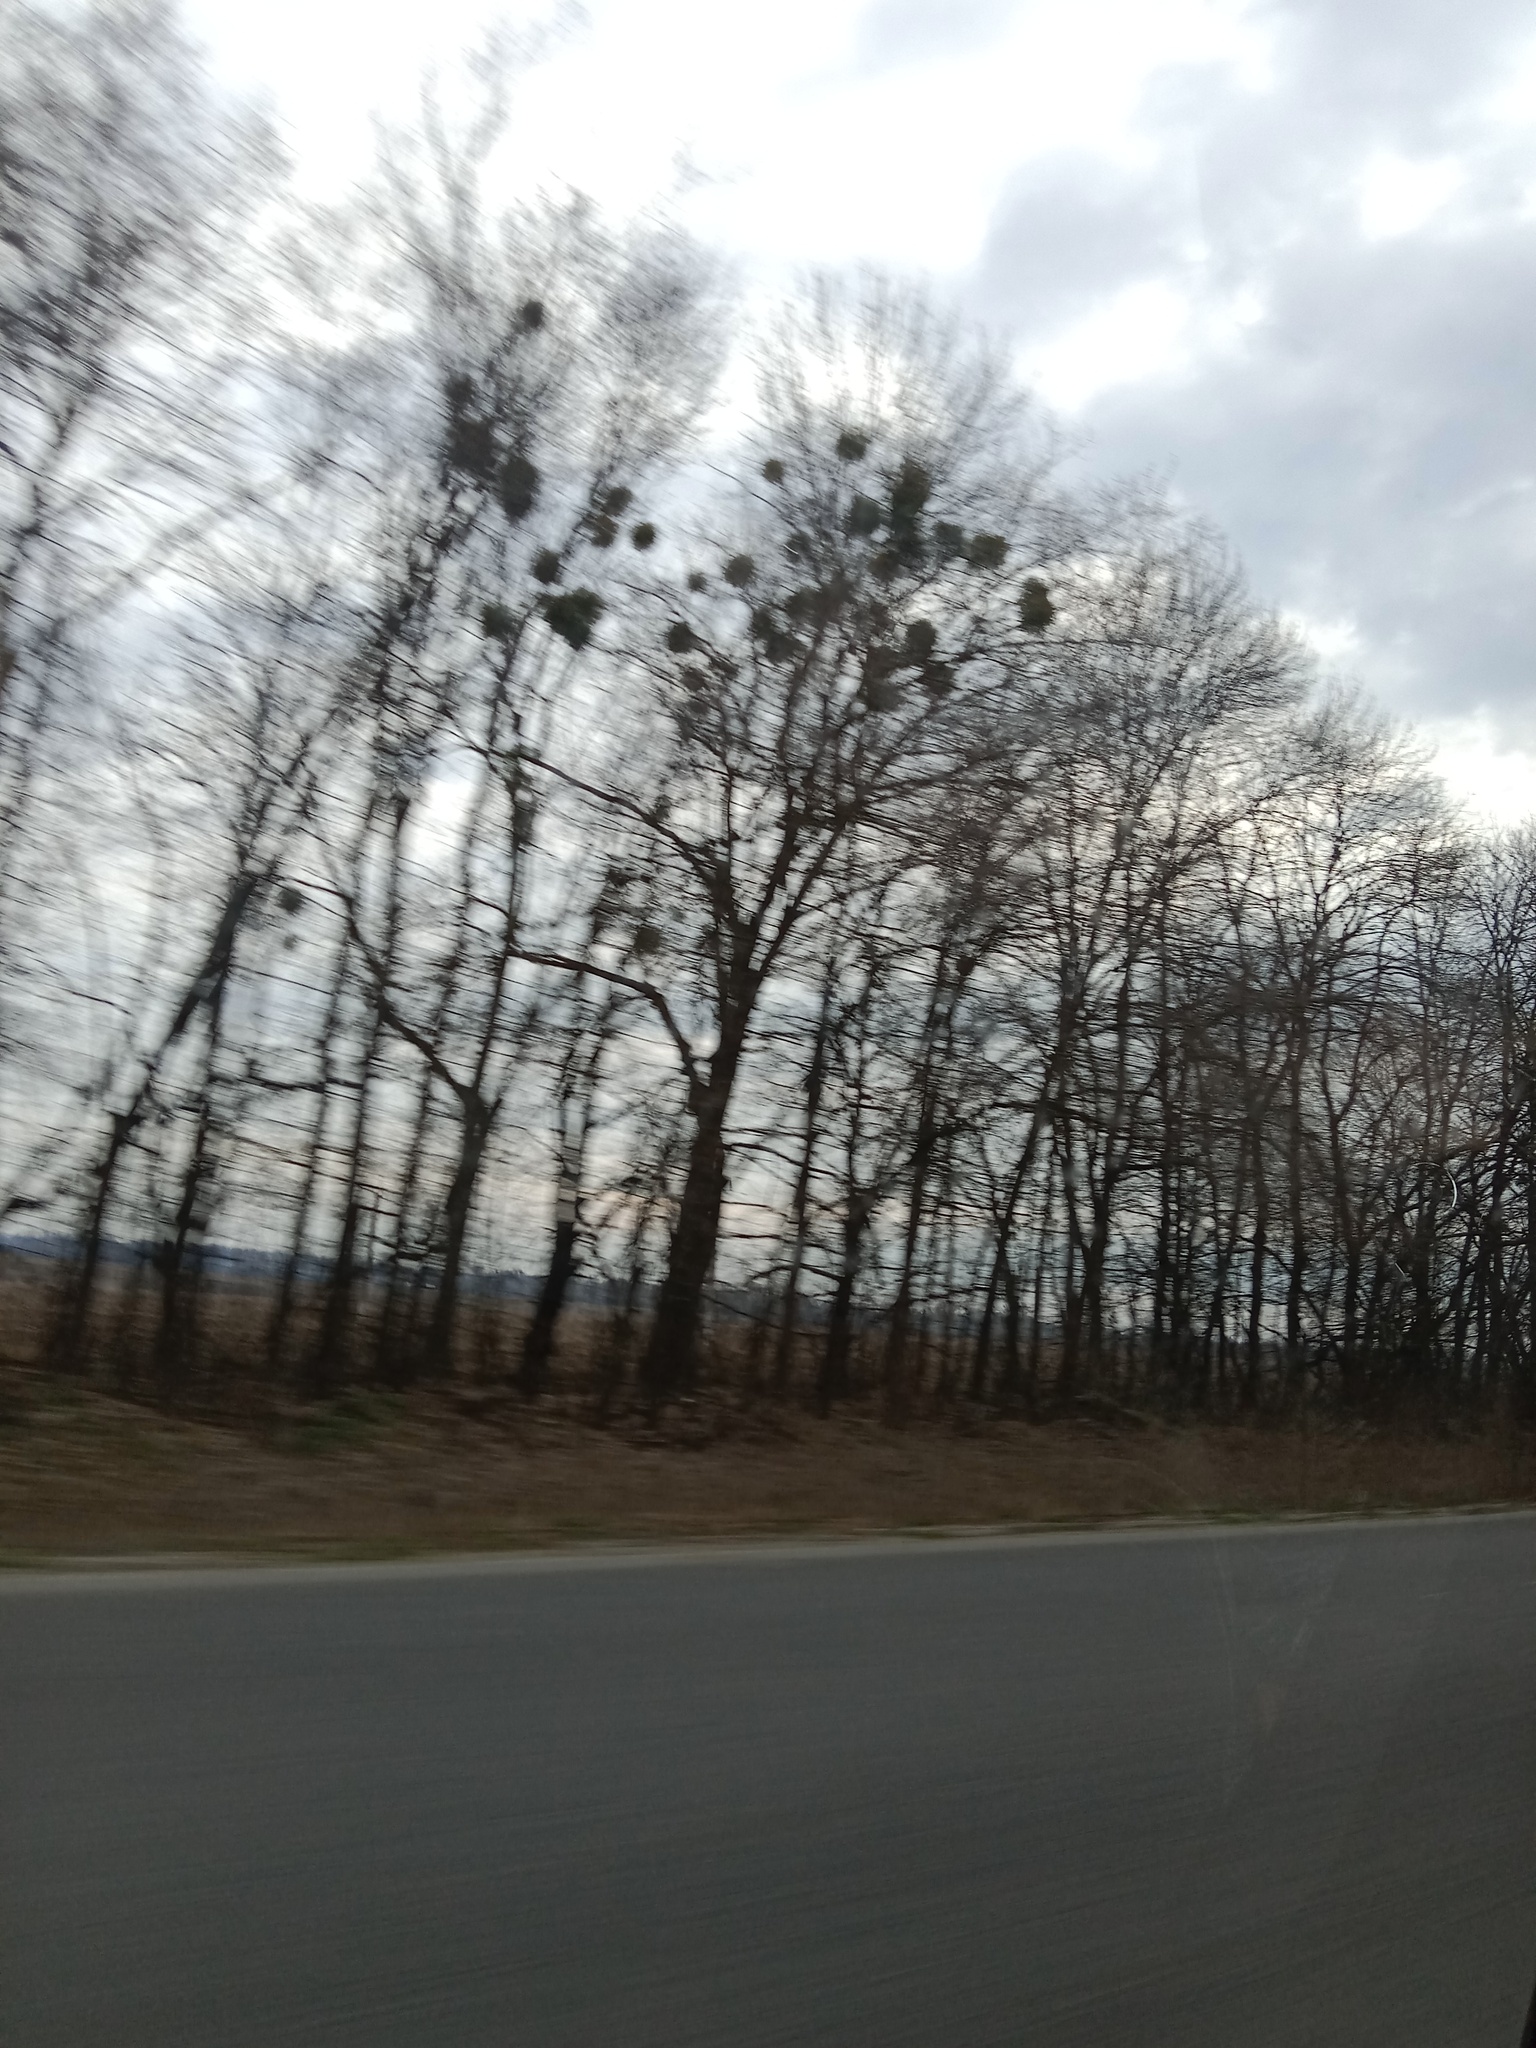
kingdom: Plantae
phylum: Tracheophyta
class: Magnoliopsida
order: Santalales
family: Viscaceae
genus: Viscum
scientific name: Viscum album
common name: Mistletoe
